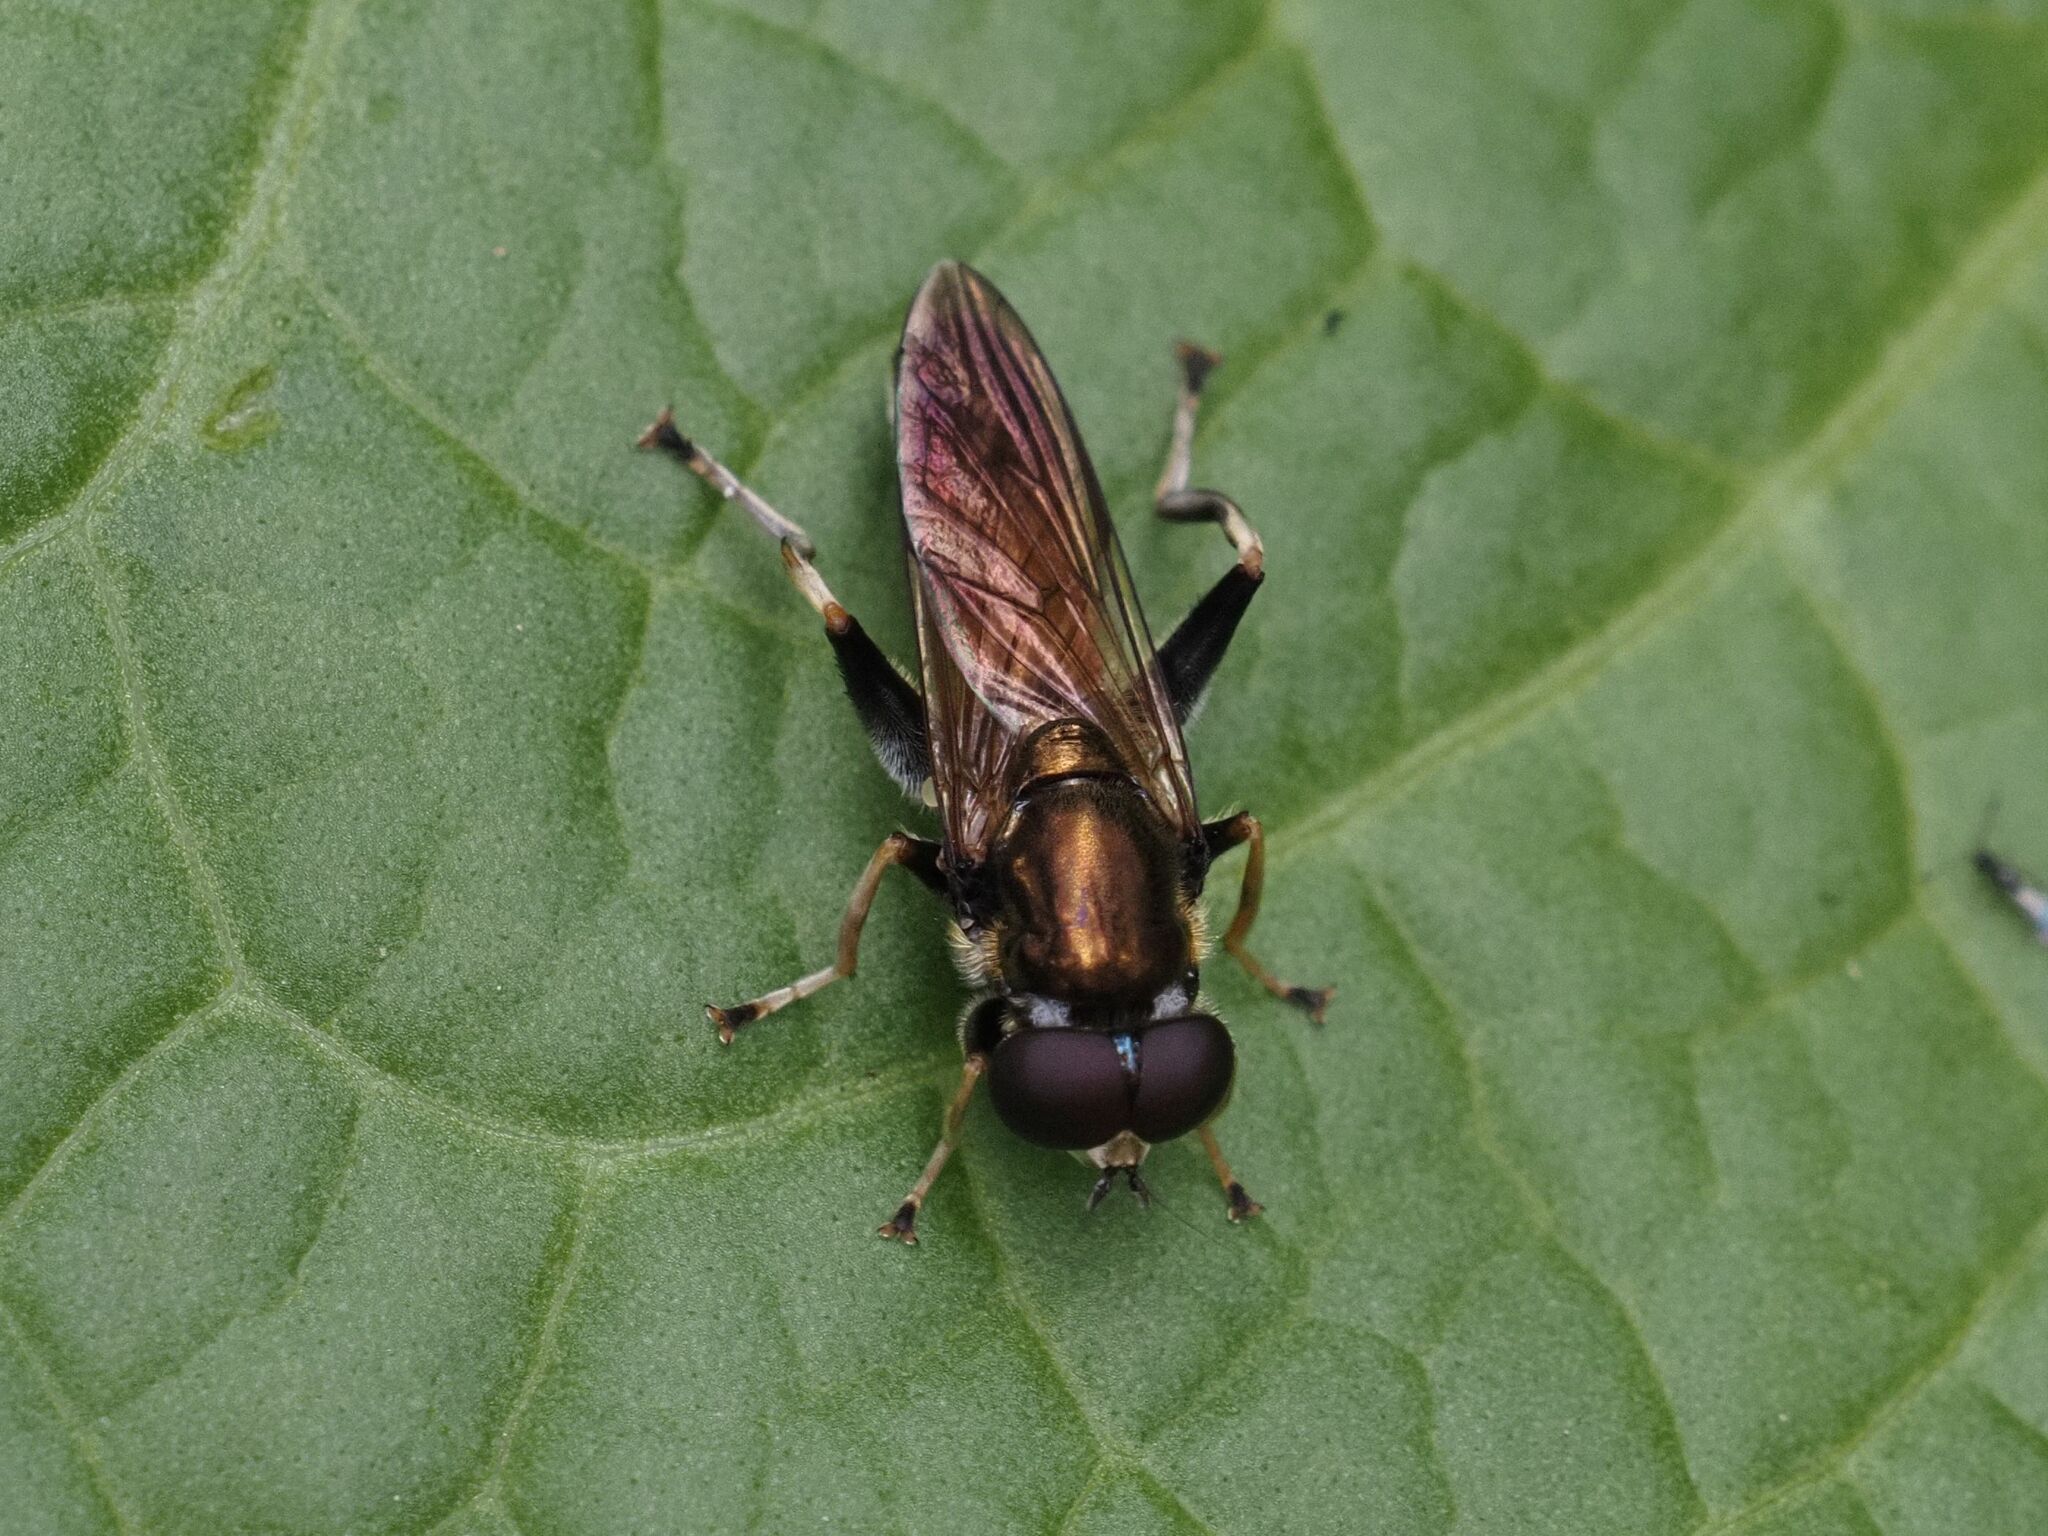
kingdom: Animalia
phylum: Arthropoda
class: Insecta
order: Diptera
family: Syrphidae
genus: Xylota
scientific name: Xylota segnis
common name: Brown-toed forest fly
